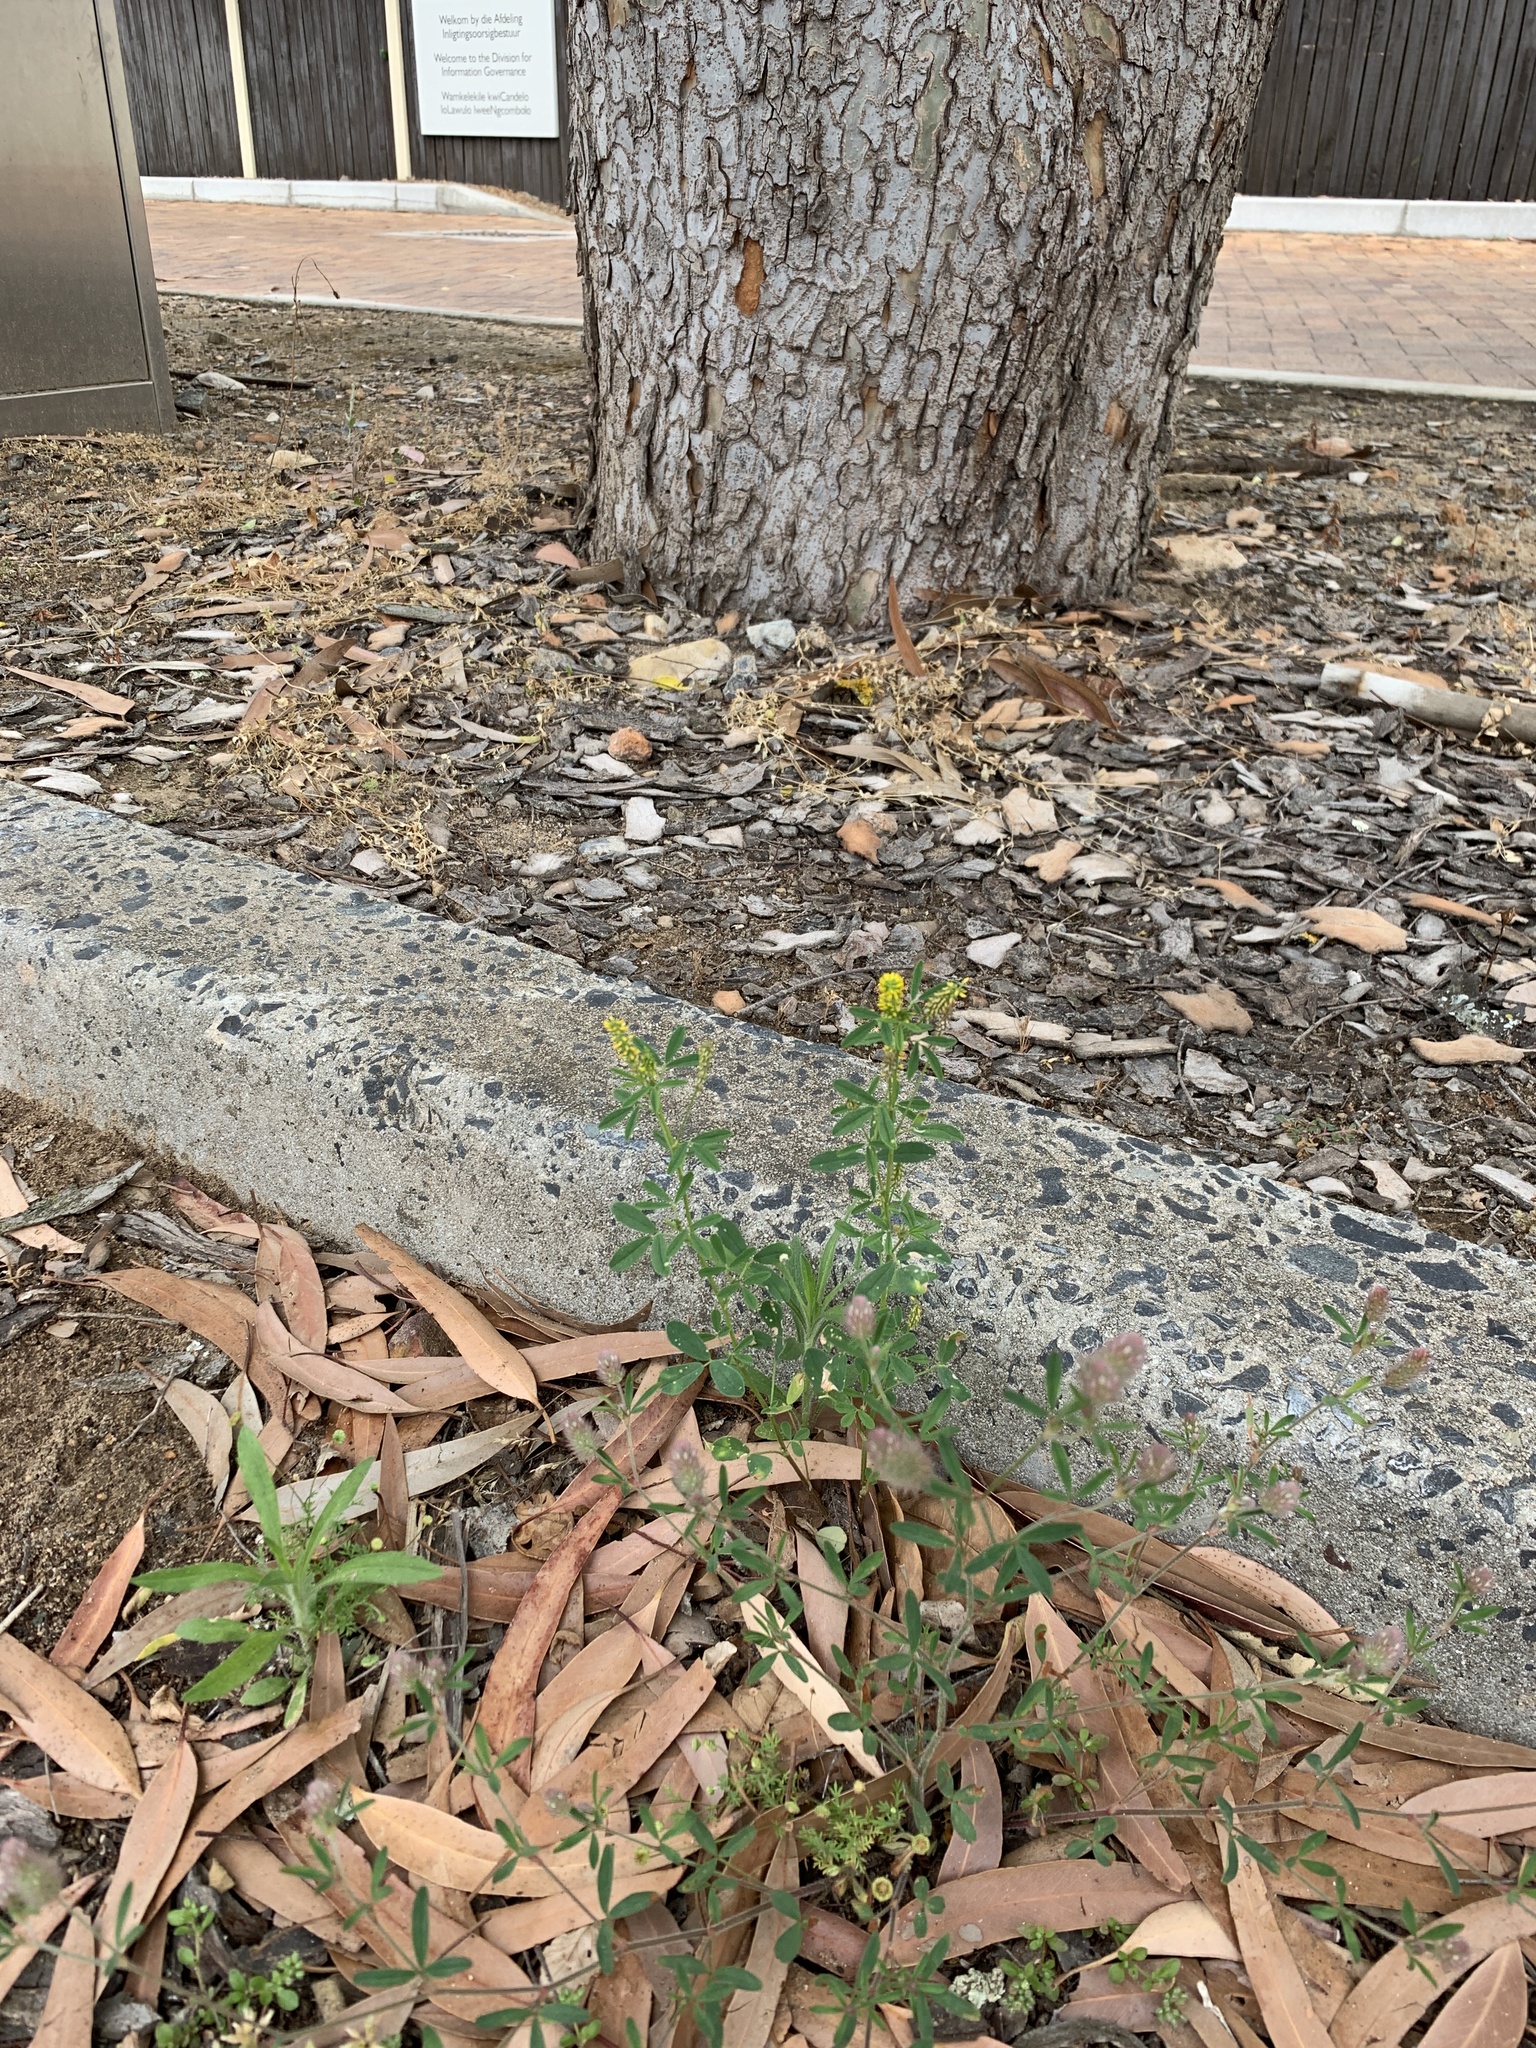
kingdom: Plantae
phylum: Tracheophyta
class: Magnoliopsida
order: Fabales
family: Fabaceae
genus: Melilotus
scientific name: Melilotus indicus
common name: Small melilot
